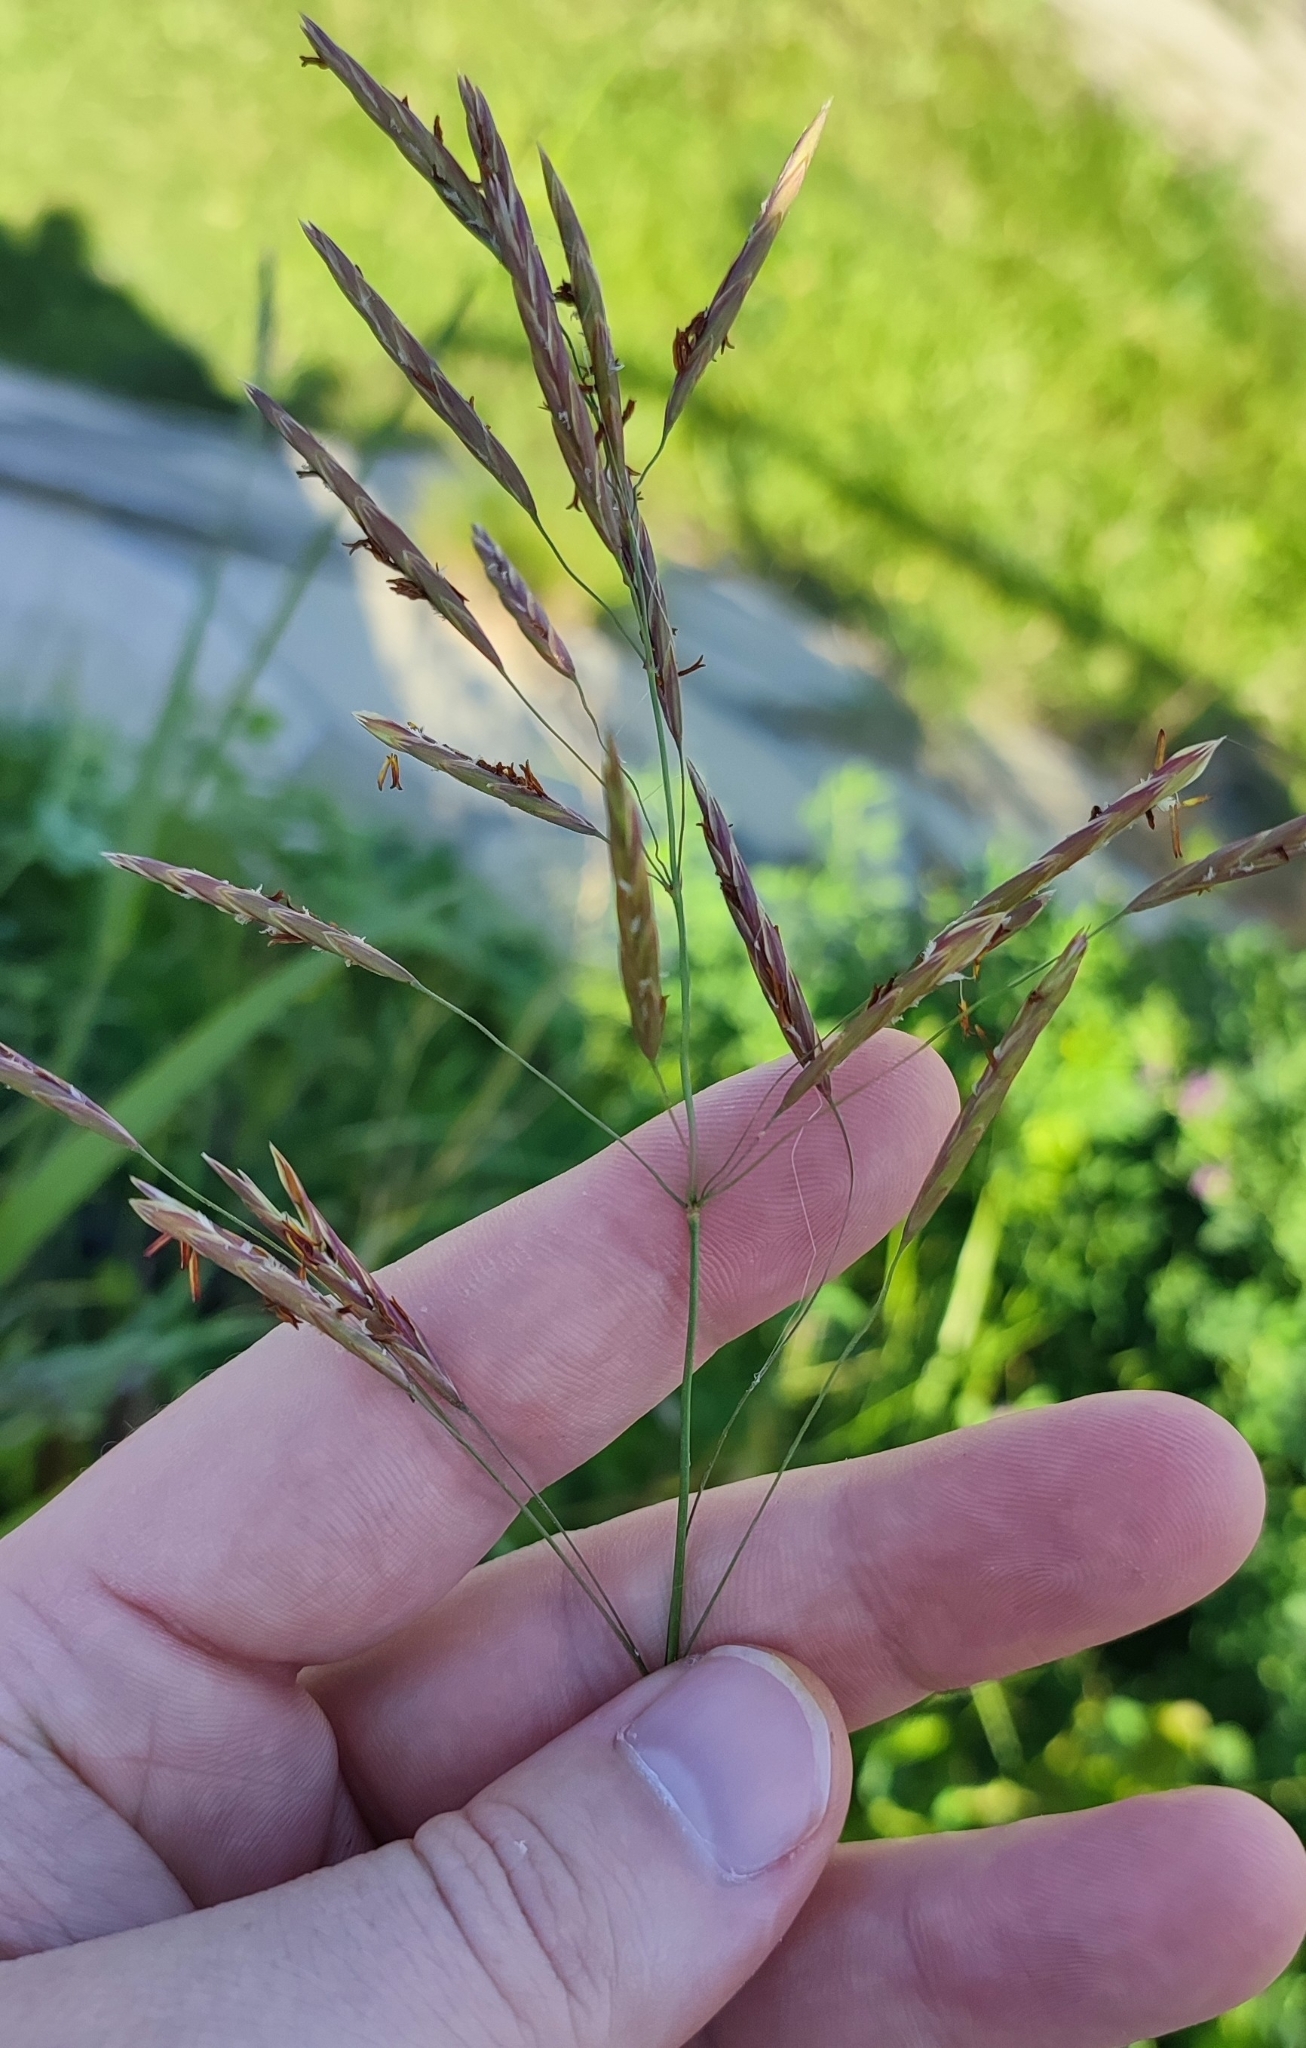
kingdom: Plantae
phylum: Tracheophyta
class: Liliopsida
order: Poales
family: Poaceae
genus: Bromus
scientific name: Bromus inermis
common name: Smooth brome
